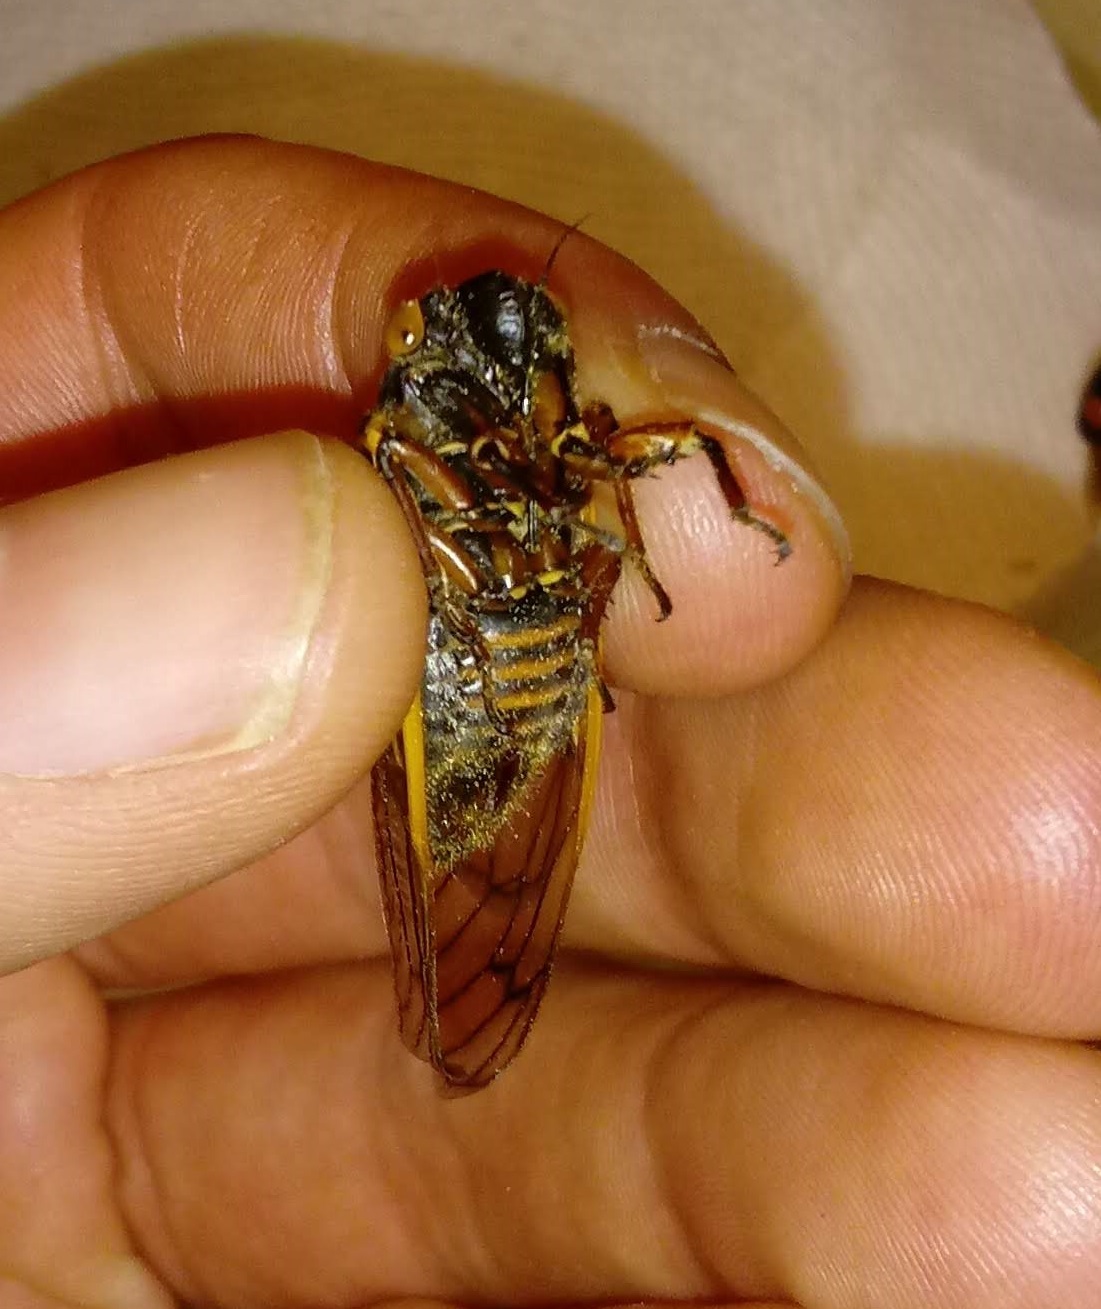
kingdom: Animalia
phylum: Arthropoda
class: Insecta
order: Hemiptera
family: Cicadidae
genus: Magicicada
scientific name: Magicicada septendecula
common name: Decula periodical cicada
